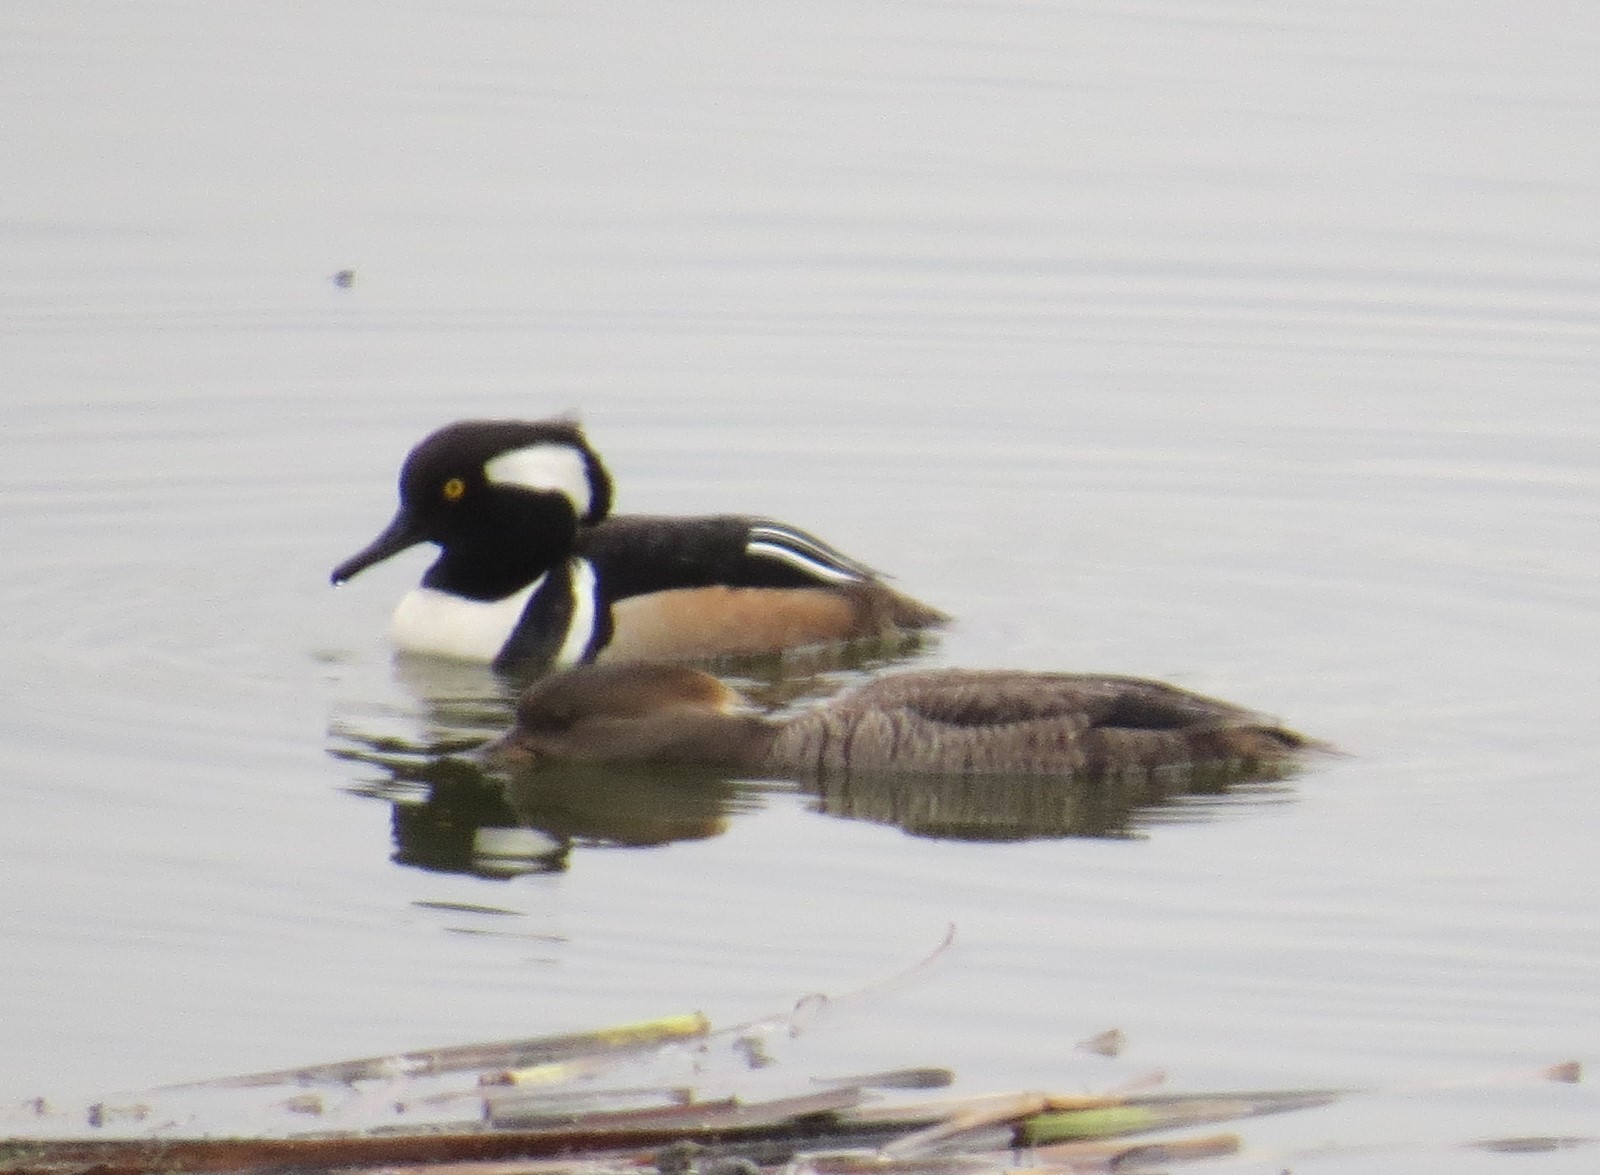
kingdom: Animalia
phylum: Chordata
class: Aves
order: Anseriformes
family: Anatidae
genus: Lophodytes
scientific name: Lophodytes cucullatus
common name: Hooded merganser
